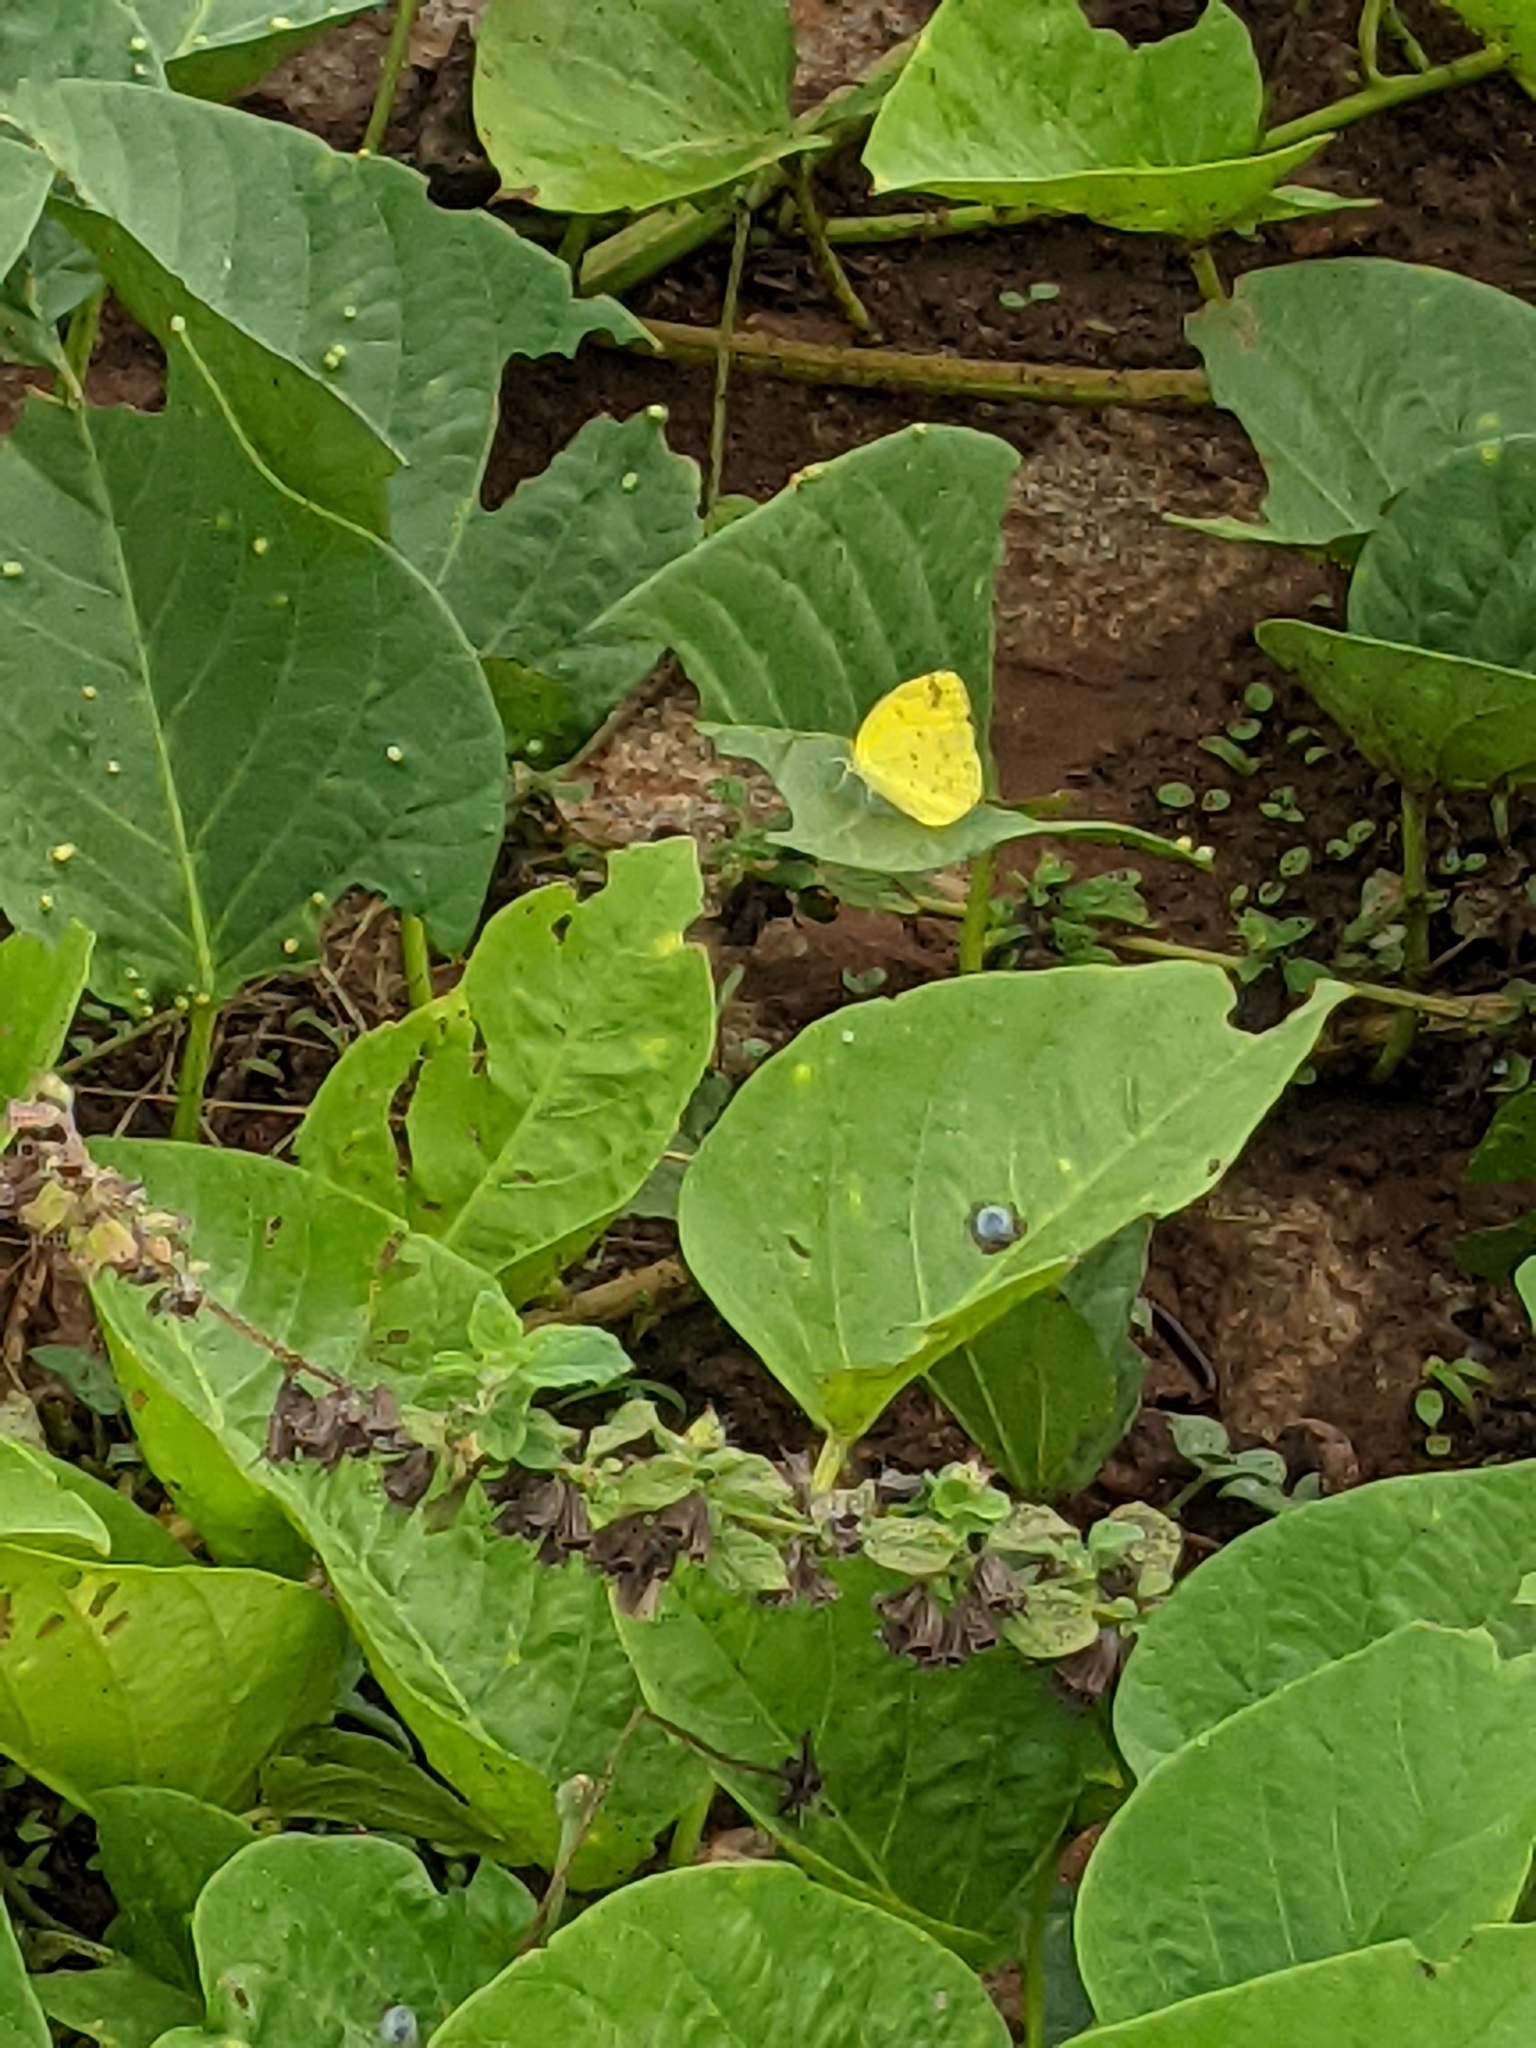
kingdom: Animalia
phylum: Arthropoda
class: Insecta
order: Lepidoptera
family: Pieridae
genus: Eurema
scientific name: Eurema hecabe
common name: Pale grass yellow
